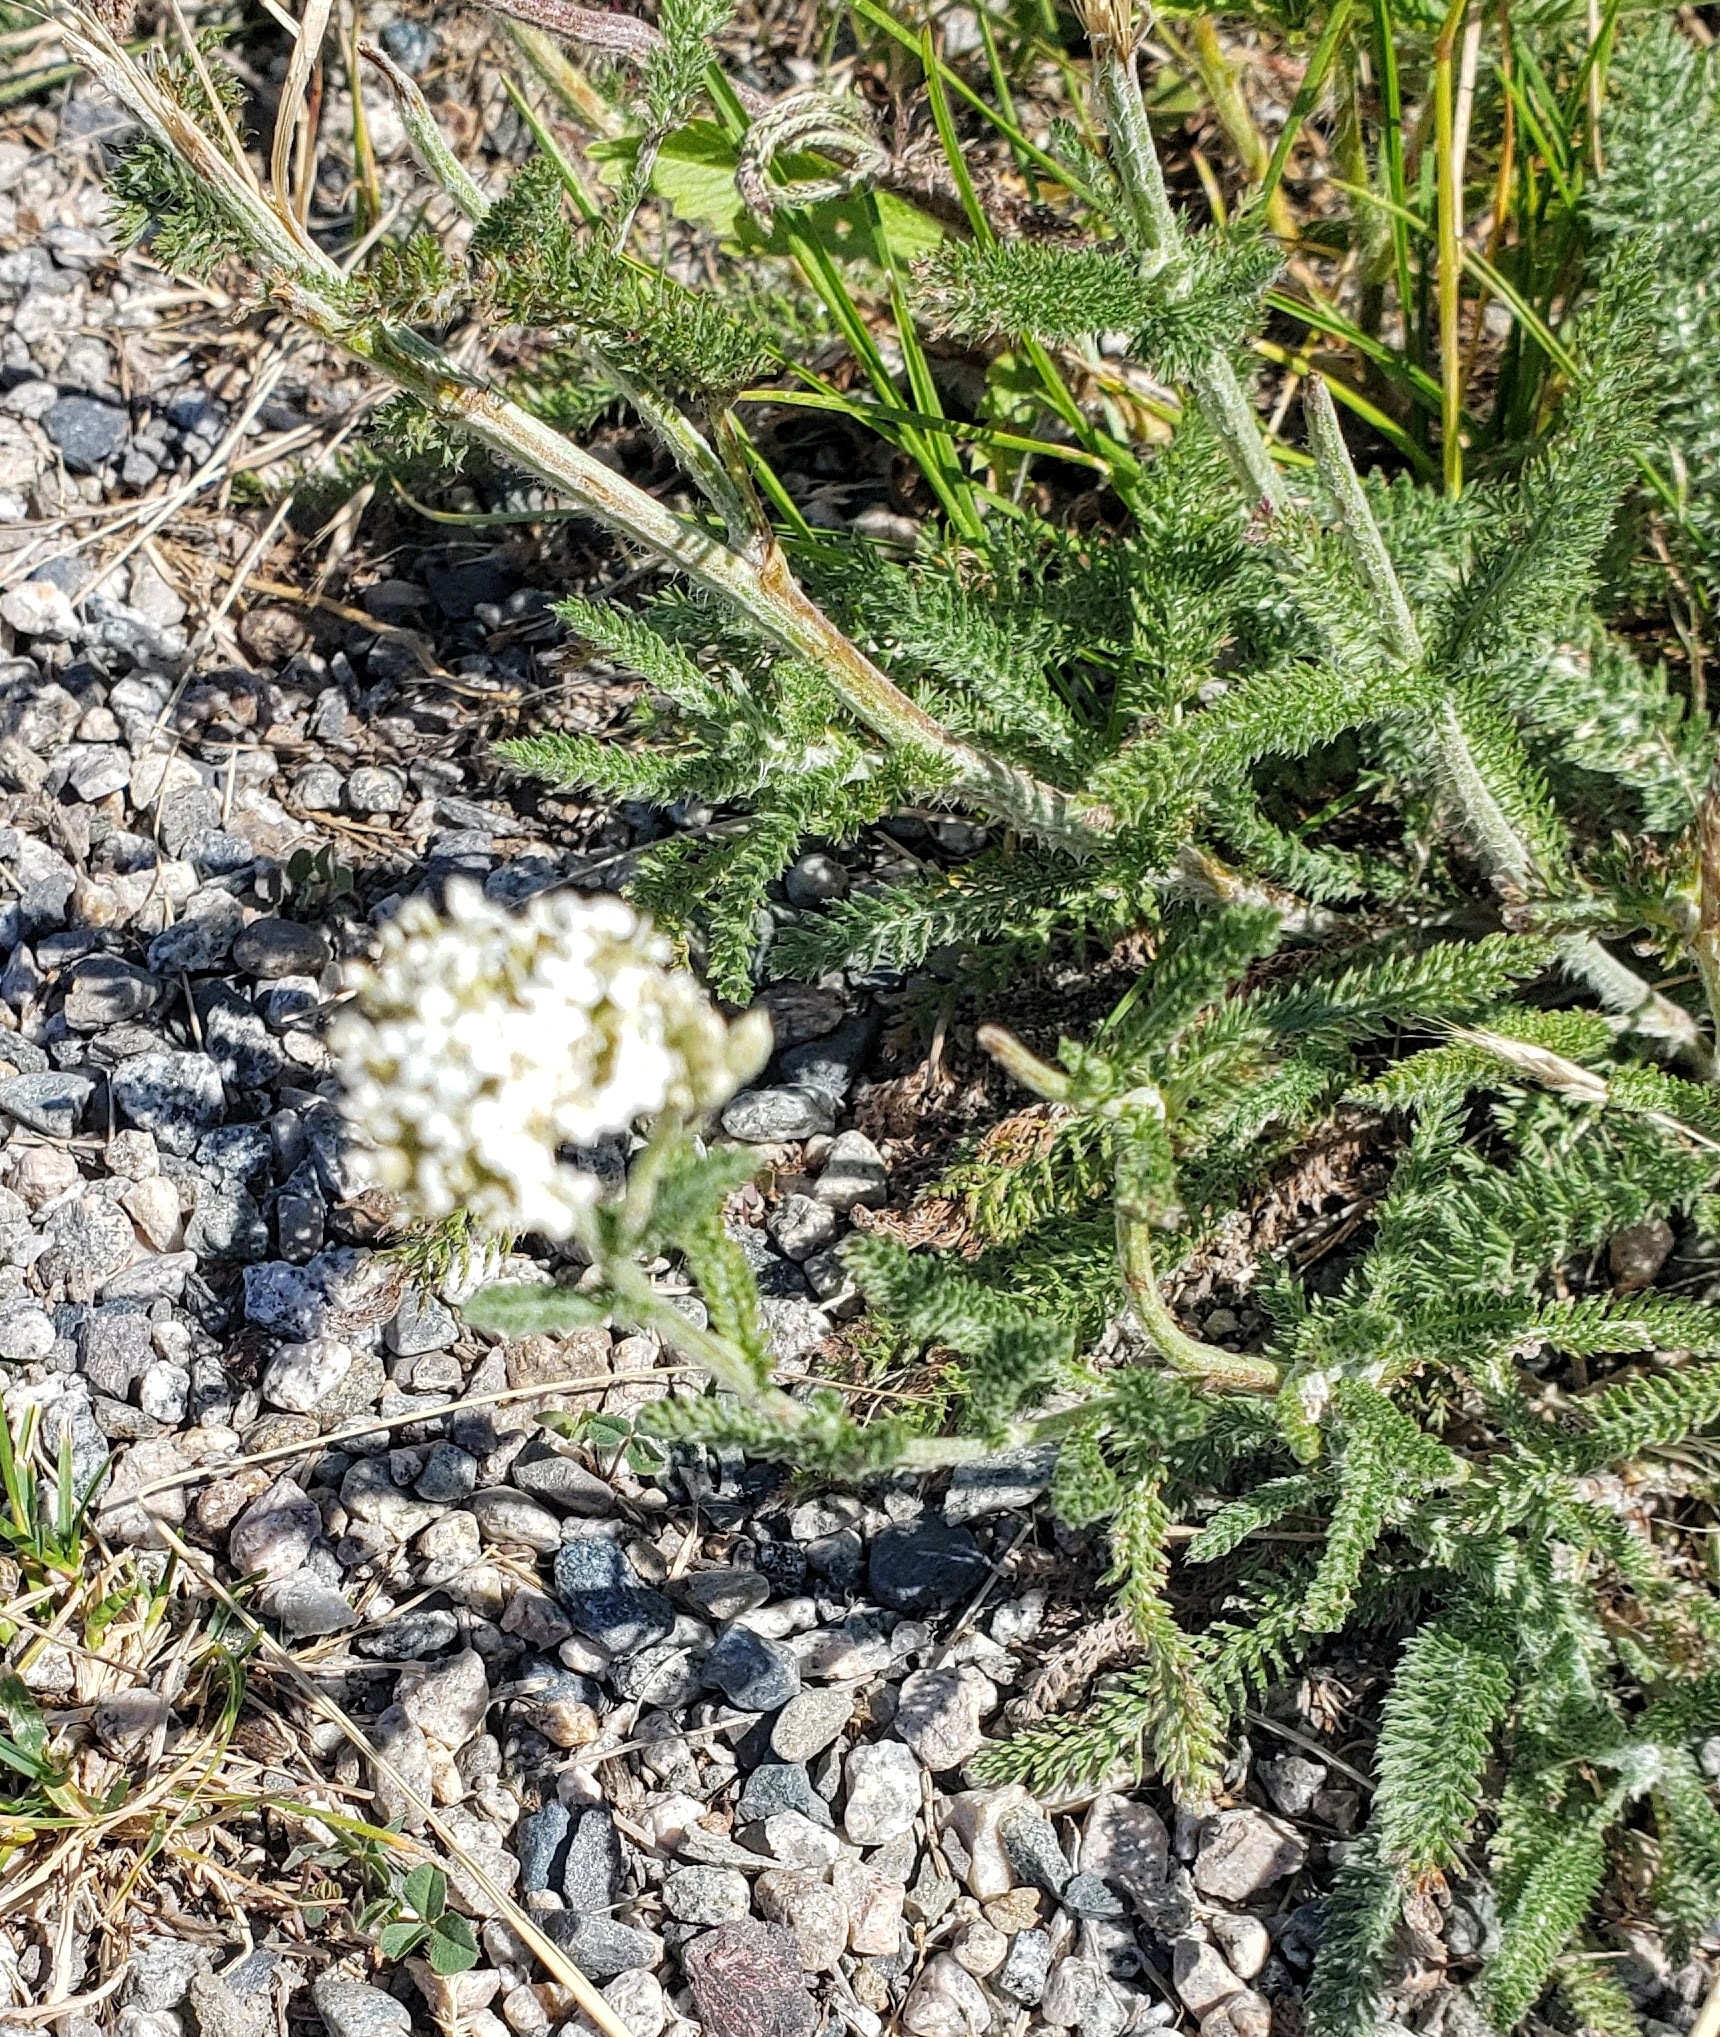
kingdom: Plantae
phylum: Tracheophyta
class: Magnoliopsida
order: Asterales
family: Asteraceae
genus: Achillea
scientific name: Achillea millefolium
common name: Yarrow
